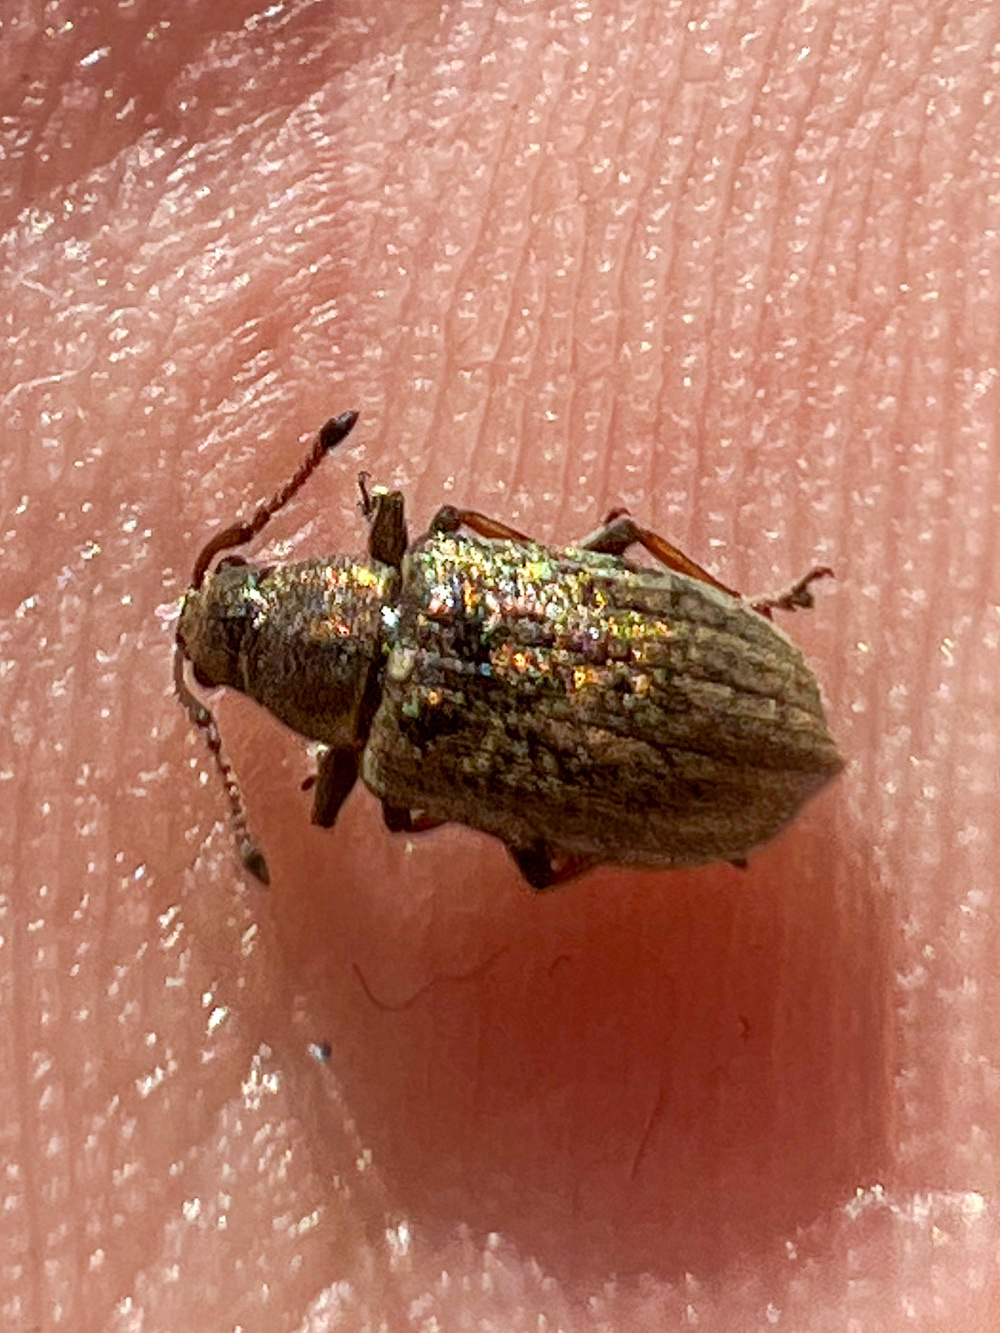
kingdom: Animalia
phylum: Arthropoda
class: Insecta
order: Coleoptera
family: Curculionidae
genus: Phyllobius
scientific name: Phyllobius pyri
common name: Common leaf weevil
